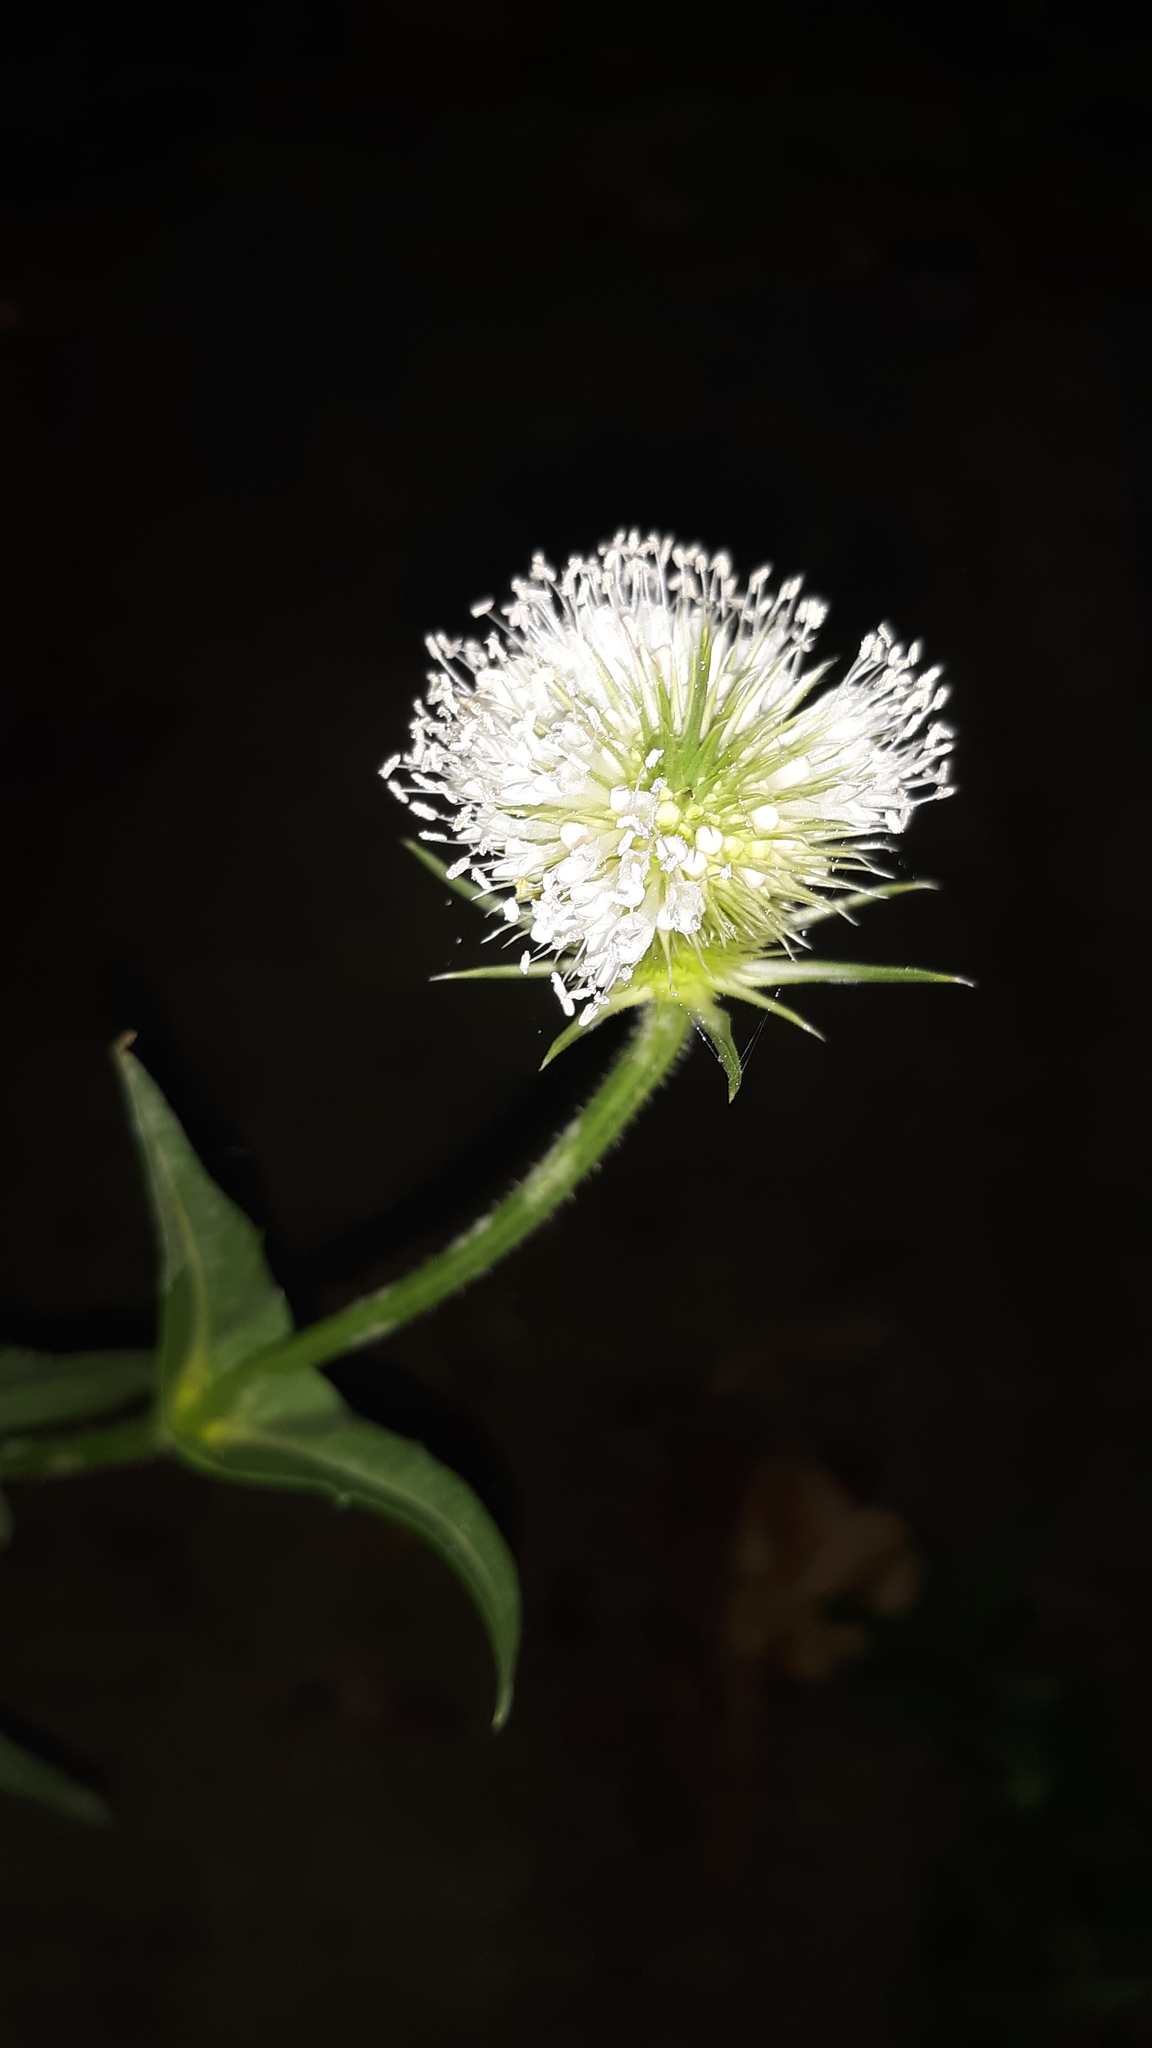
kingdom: Plantae
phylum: Tracheophyta
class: Magnoliopsida
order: Dipsacales
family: Caprifoliaceae
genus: Dipsacus
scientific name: Dipsacus laciniatus
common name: Cut-leaved teasel
